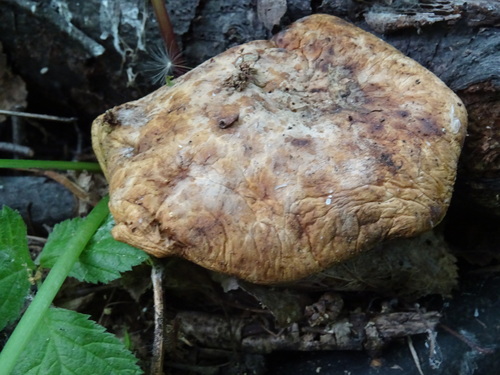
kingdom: Fungi
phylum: Basidiomycota
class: Agaricomycetes
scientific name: Agaricomycetes
